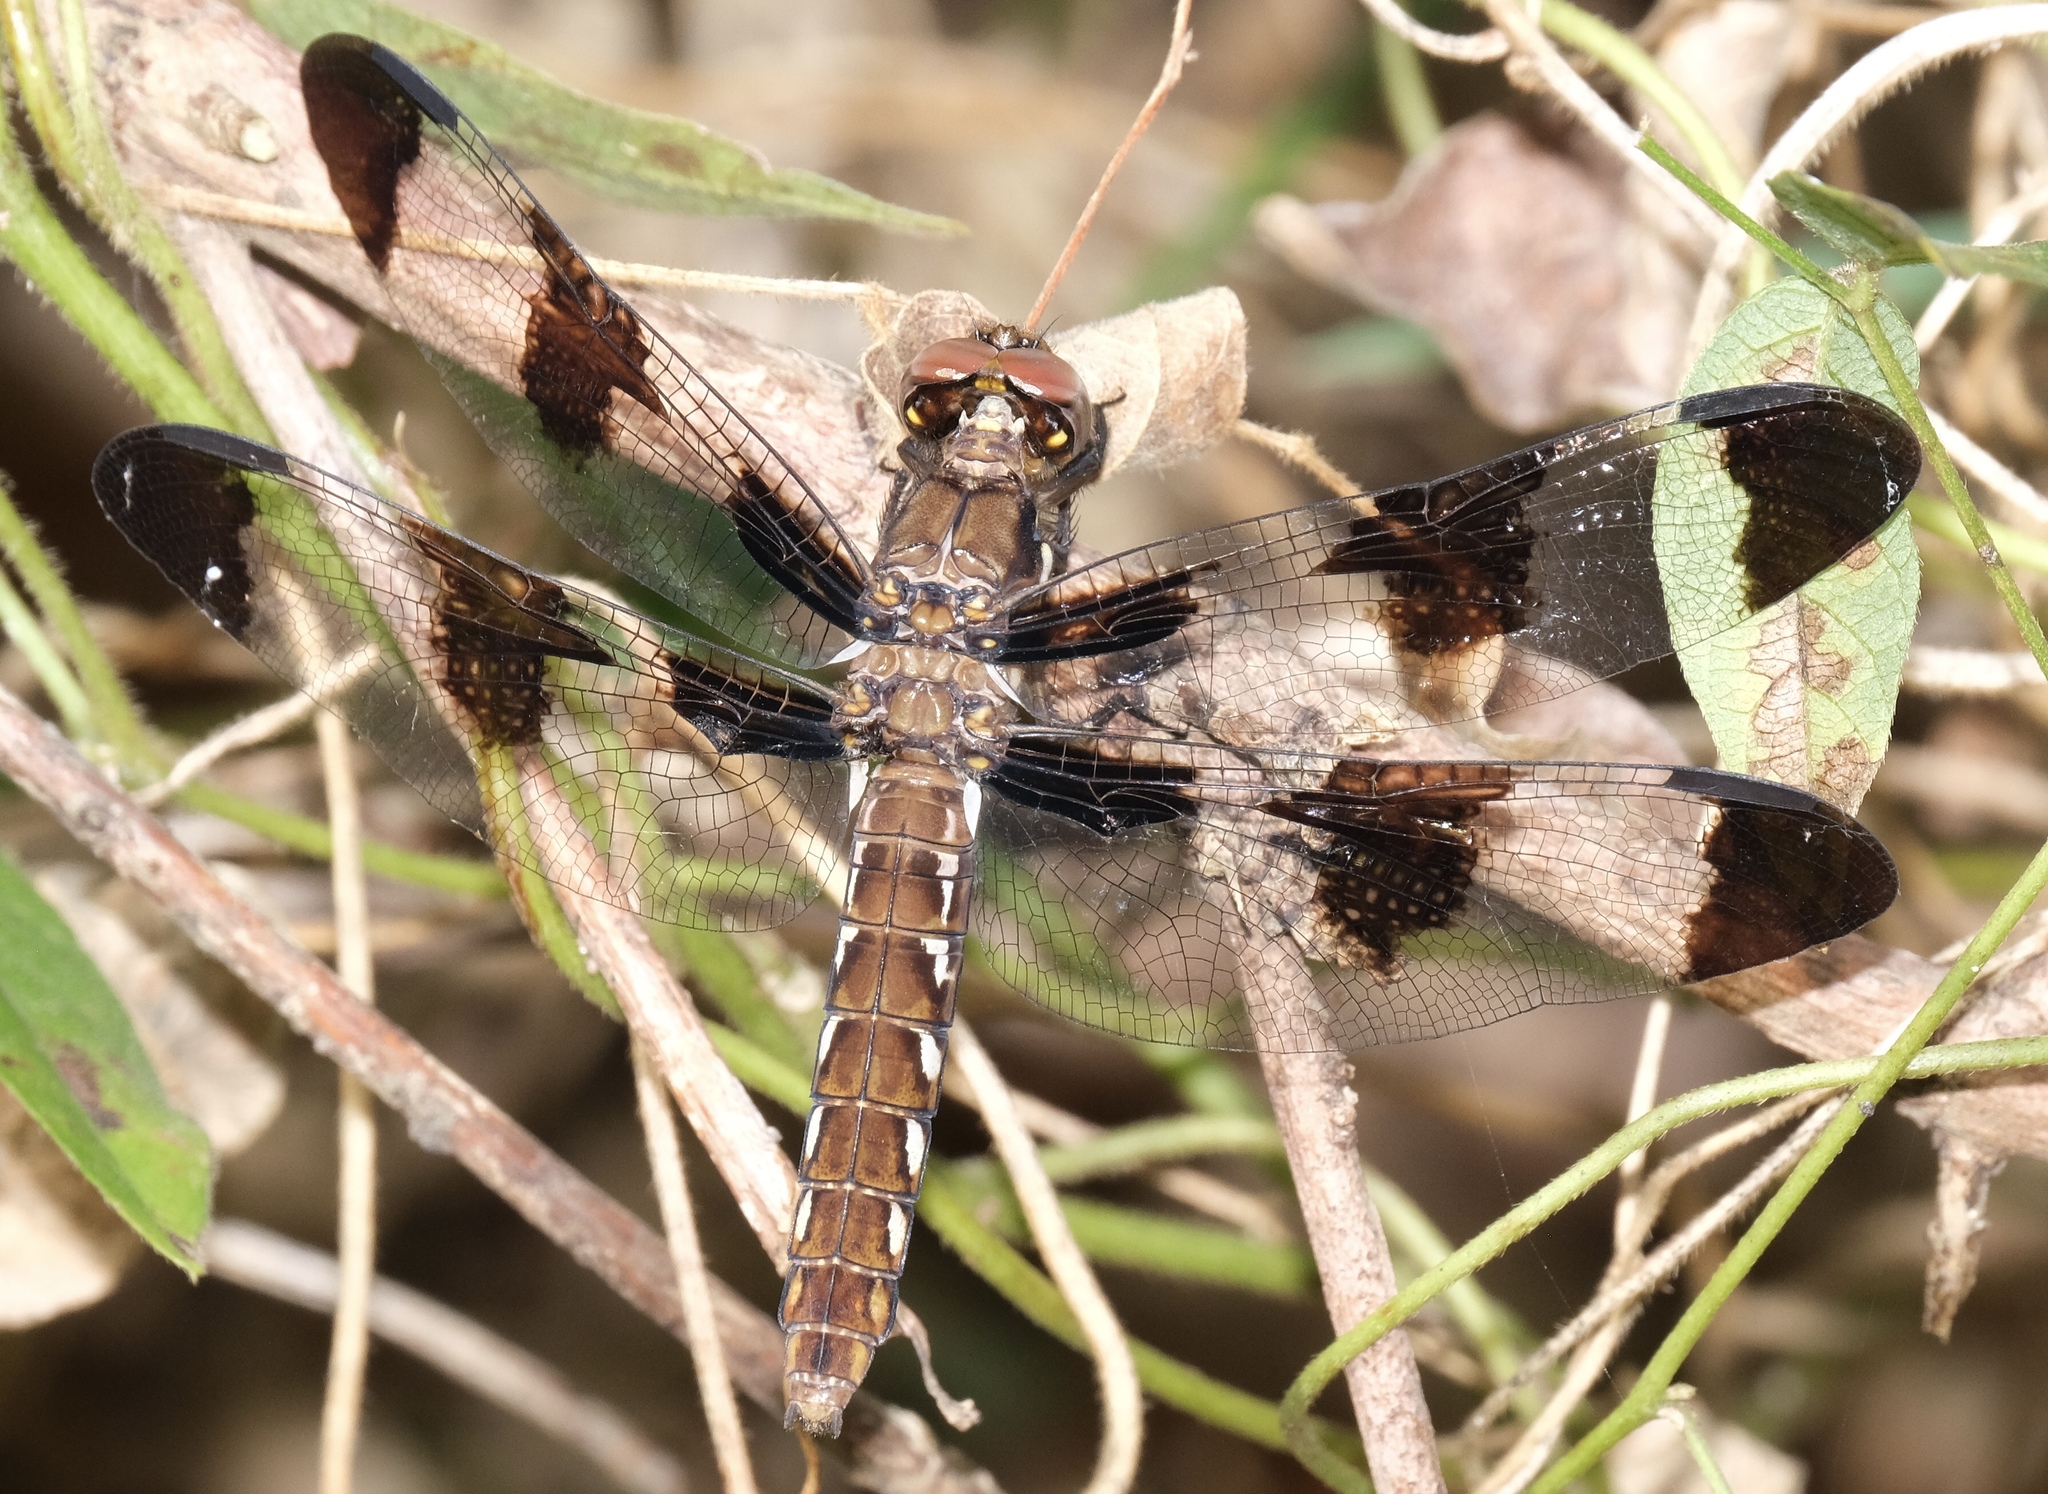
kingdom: Animalia
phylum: Arthropoda
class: Insecta
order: Odonata
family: Libellulidae
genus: Plathemis
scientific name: Plathemis lydia
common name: Common whitetail
